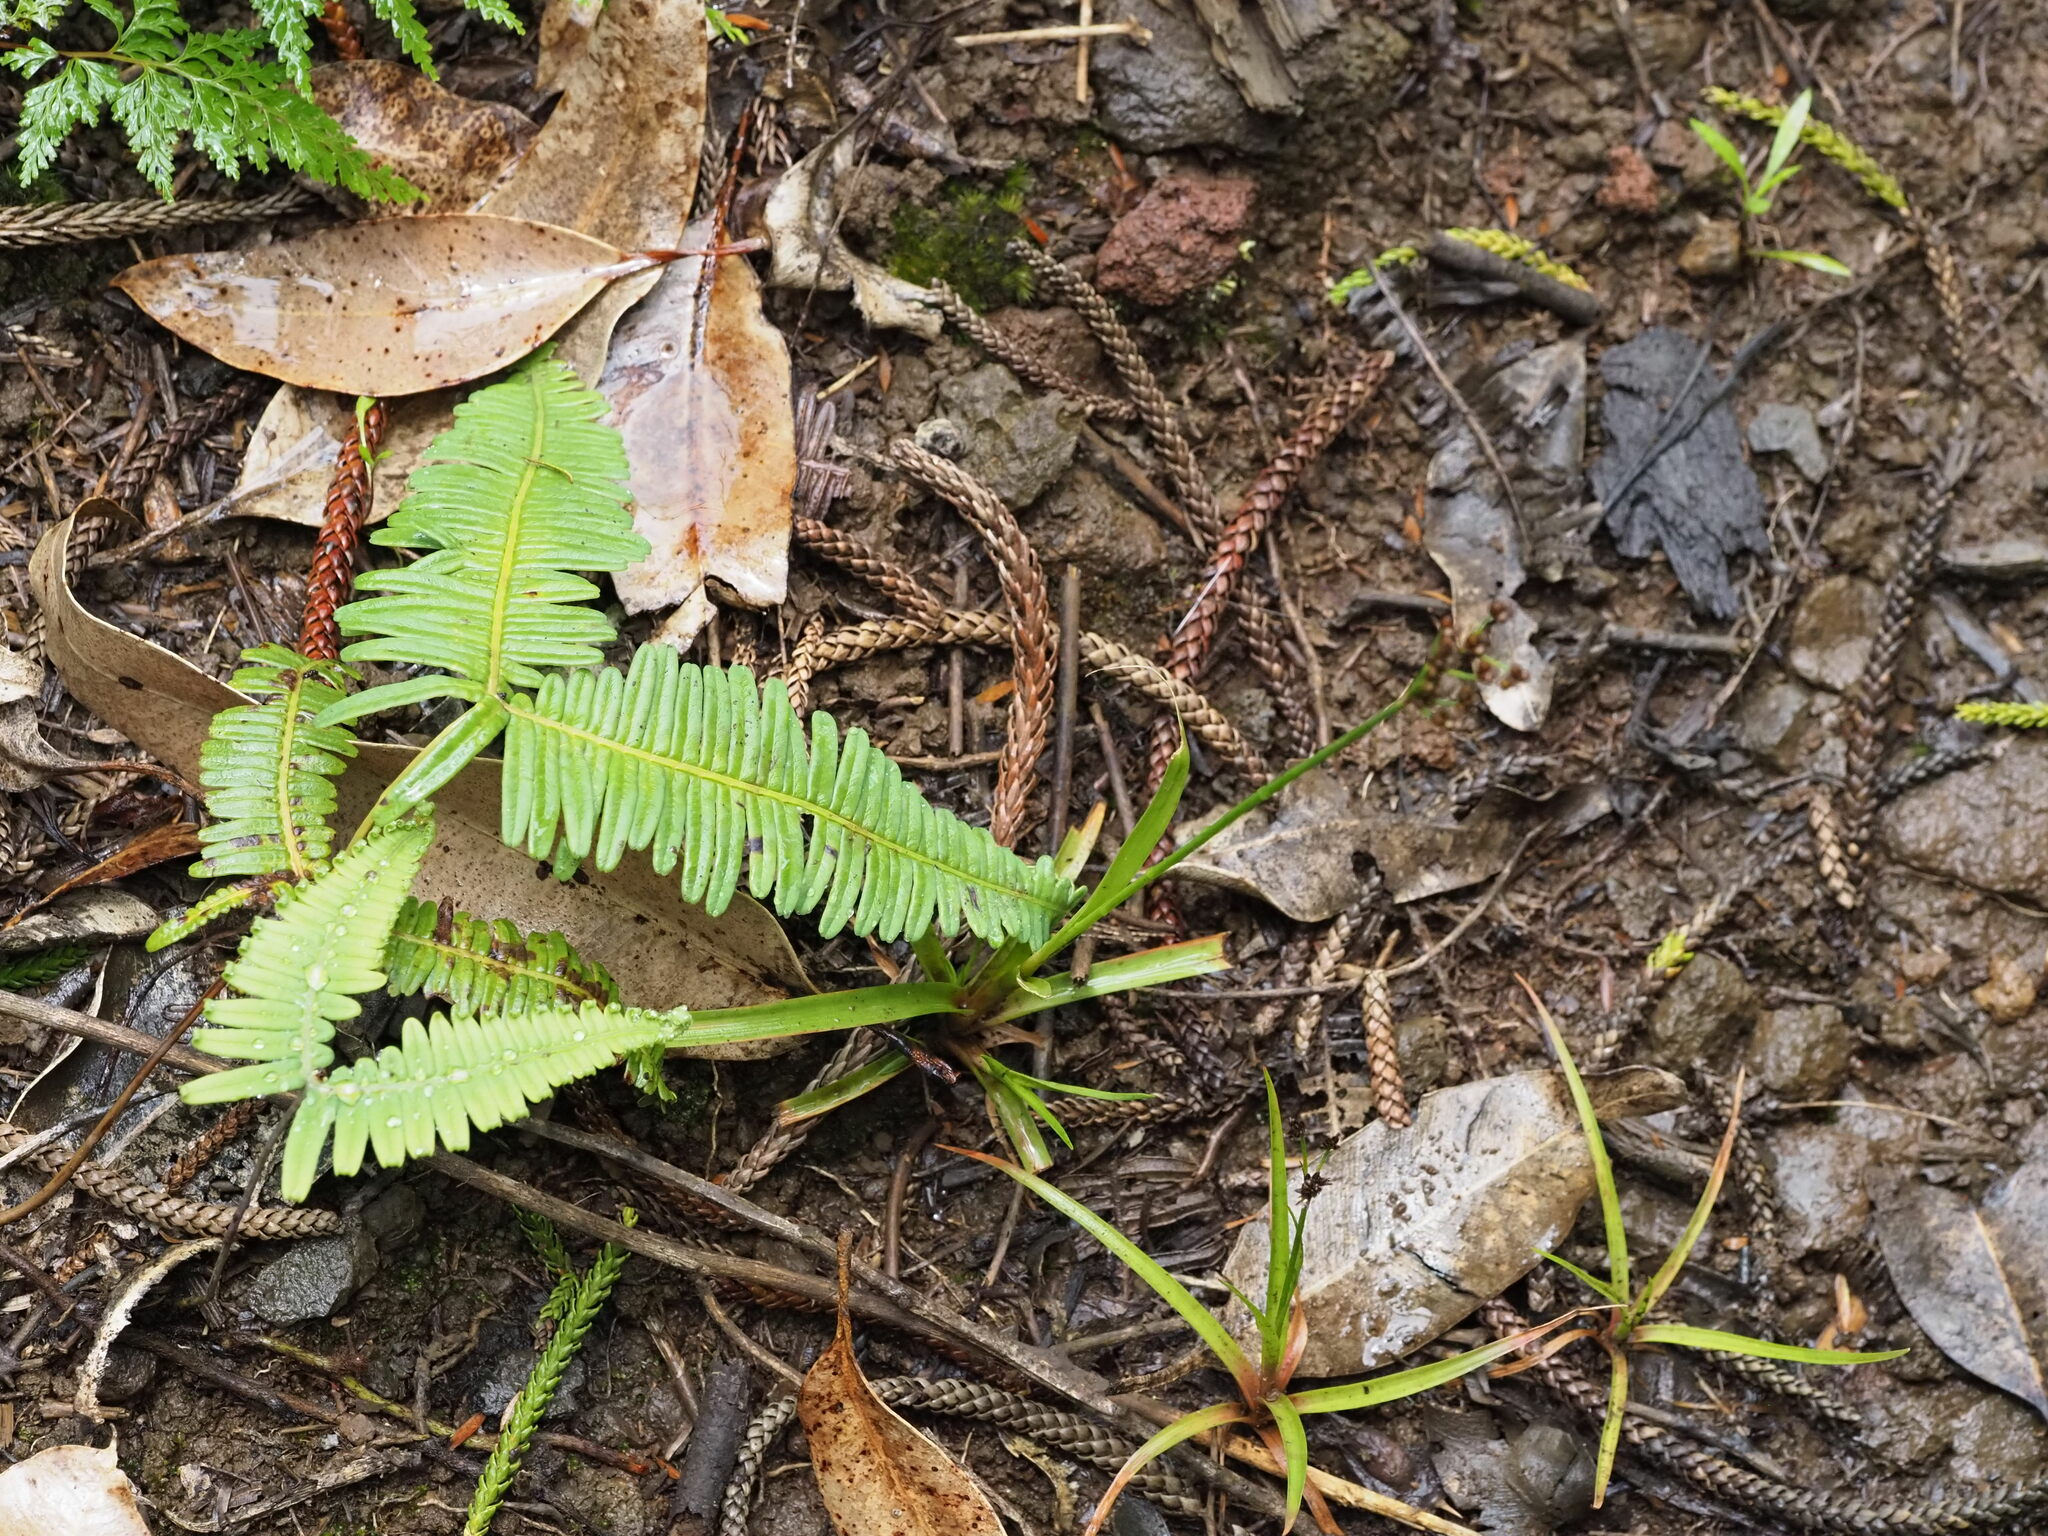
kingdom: Plantae
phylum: Tracheophyta
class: Liliopsida
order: Poales
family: Juncaceae
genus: Juncus
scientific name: Juncus planifolius
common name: Broadleaf rush
